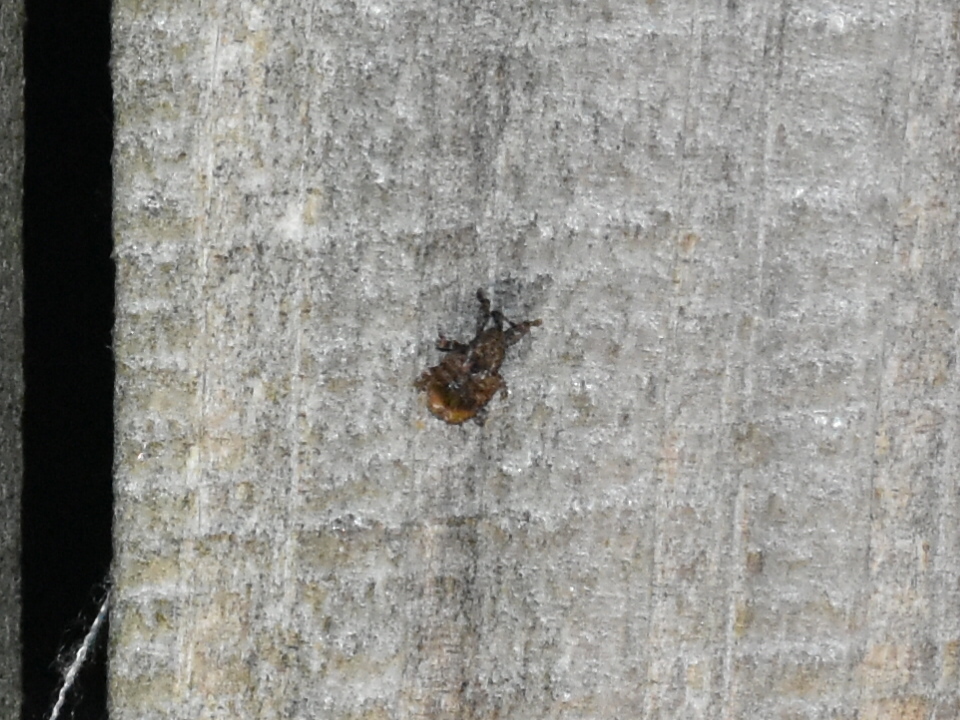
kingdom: Animalia
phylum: Arthropoda
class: Insecta
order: Coleoptera
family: Curculionidae
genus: Conotrachelus
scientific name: Conotrachelus nenuphar
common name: Plum curculio
